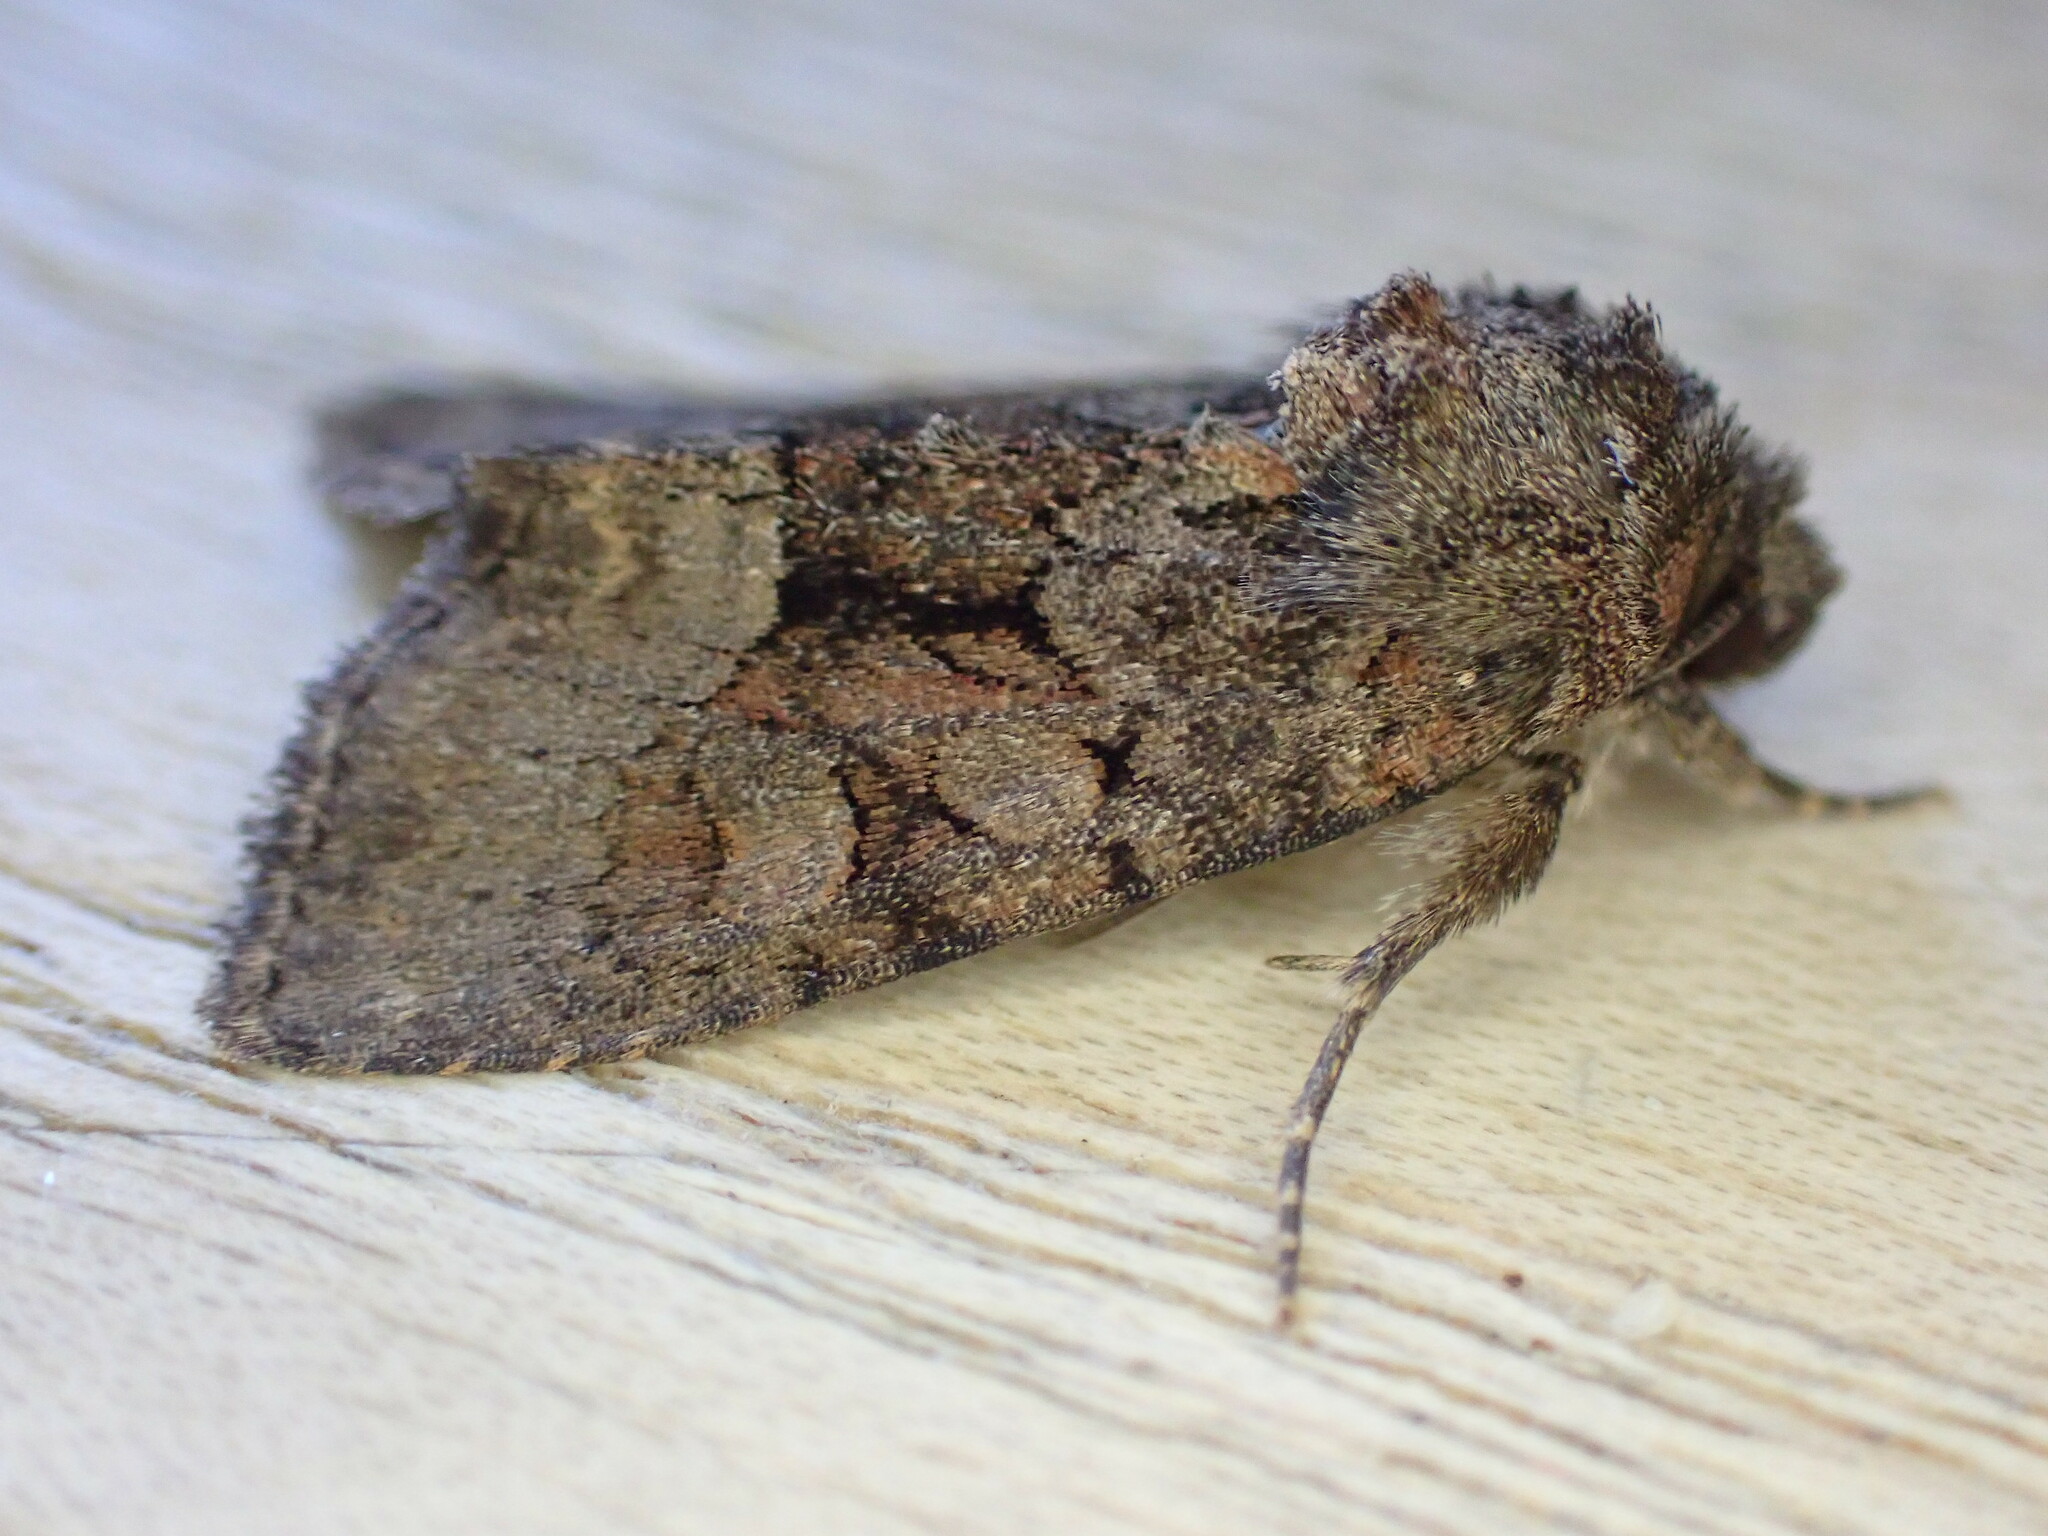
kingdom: Animalia
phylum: Arthropoda
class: Insecta
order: Lepidoptera
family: Noctuidae
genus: Oligia
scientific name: Oligia latruncula
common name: Tawny marbled minor
